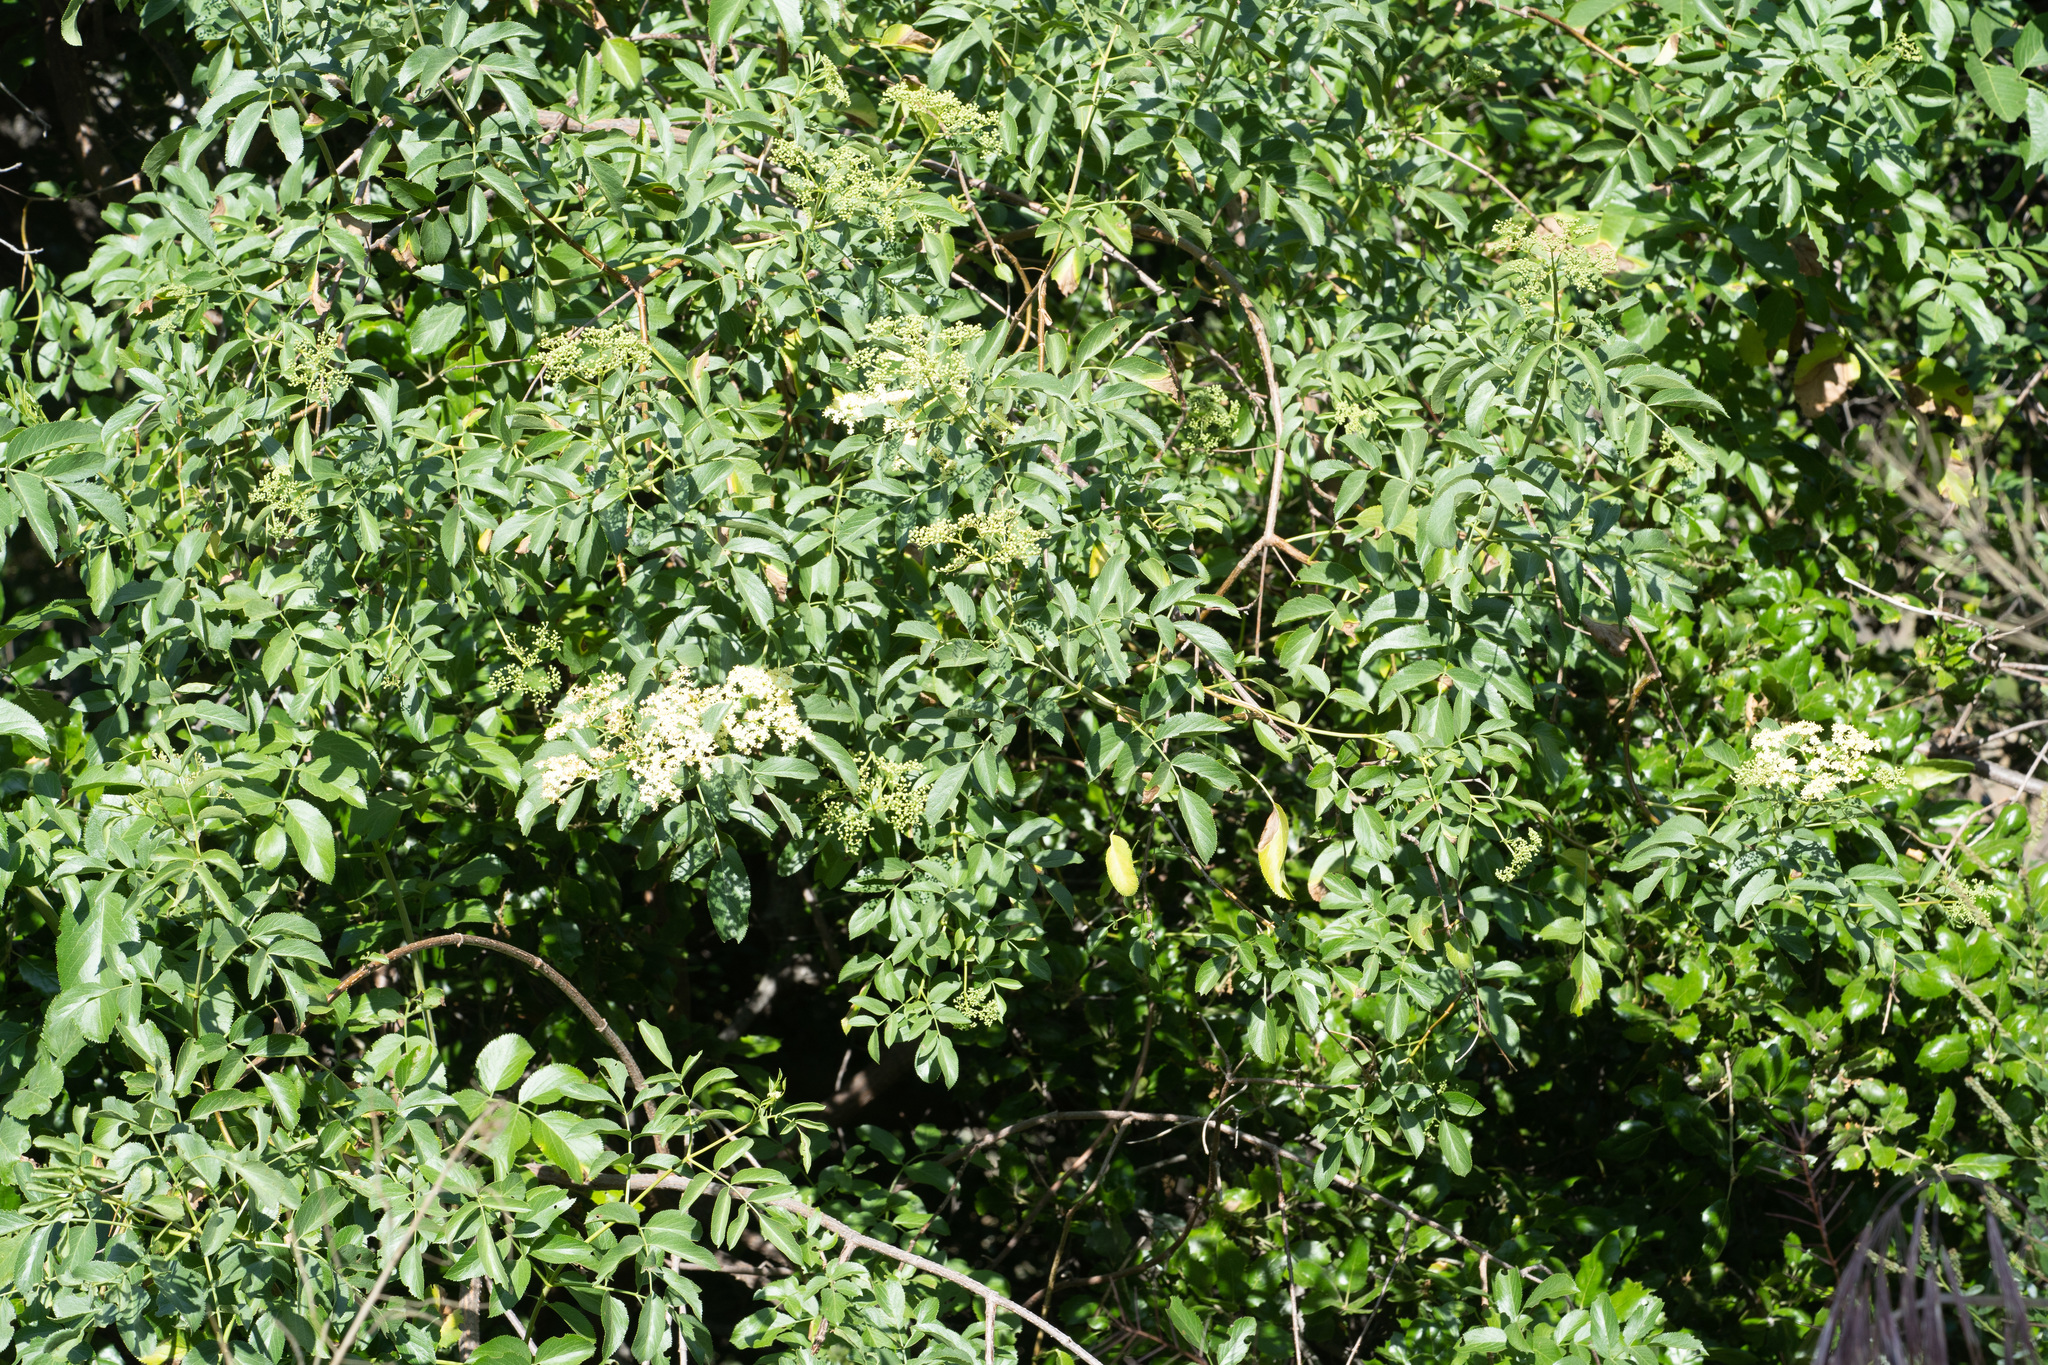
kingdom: Plantae
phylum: Tracheophyta
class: Magnoliopsida
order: Dipsacales
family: Viburnaceae
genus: Sambucus
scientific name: Sambucus cerulea
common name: Blue elder
